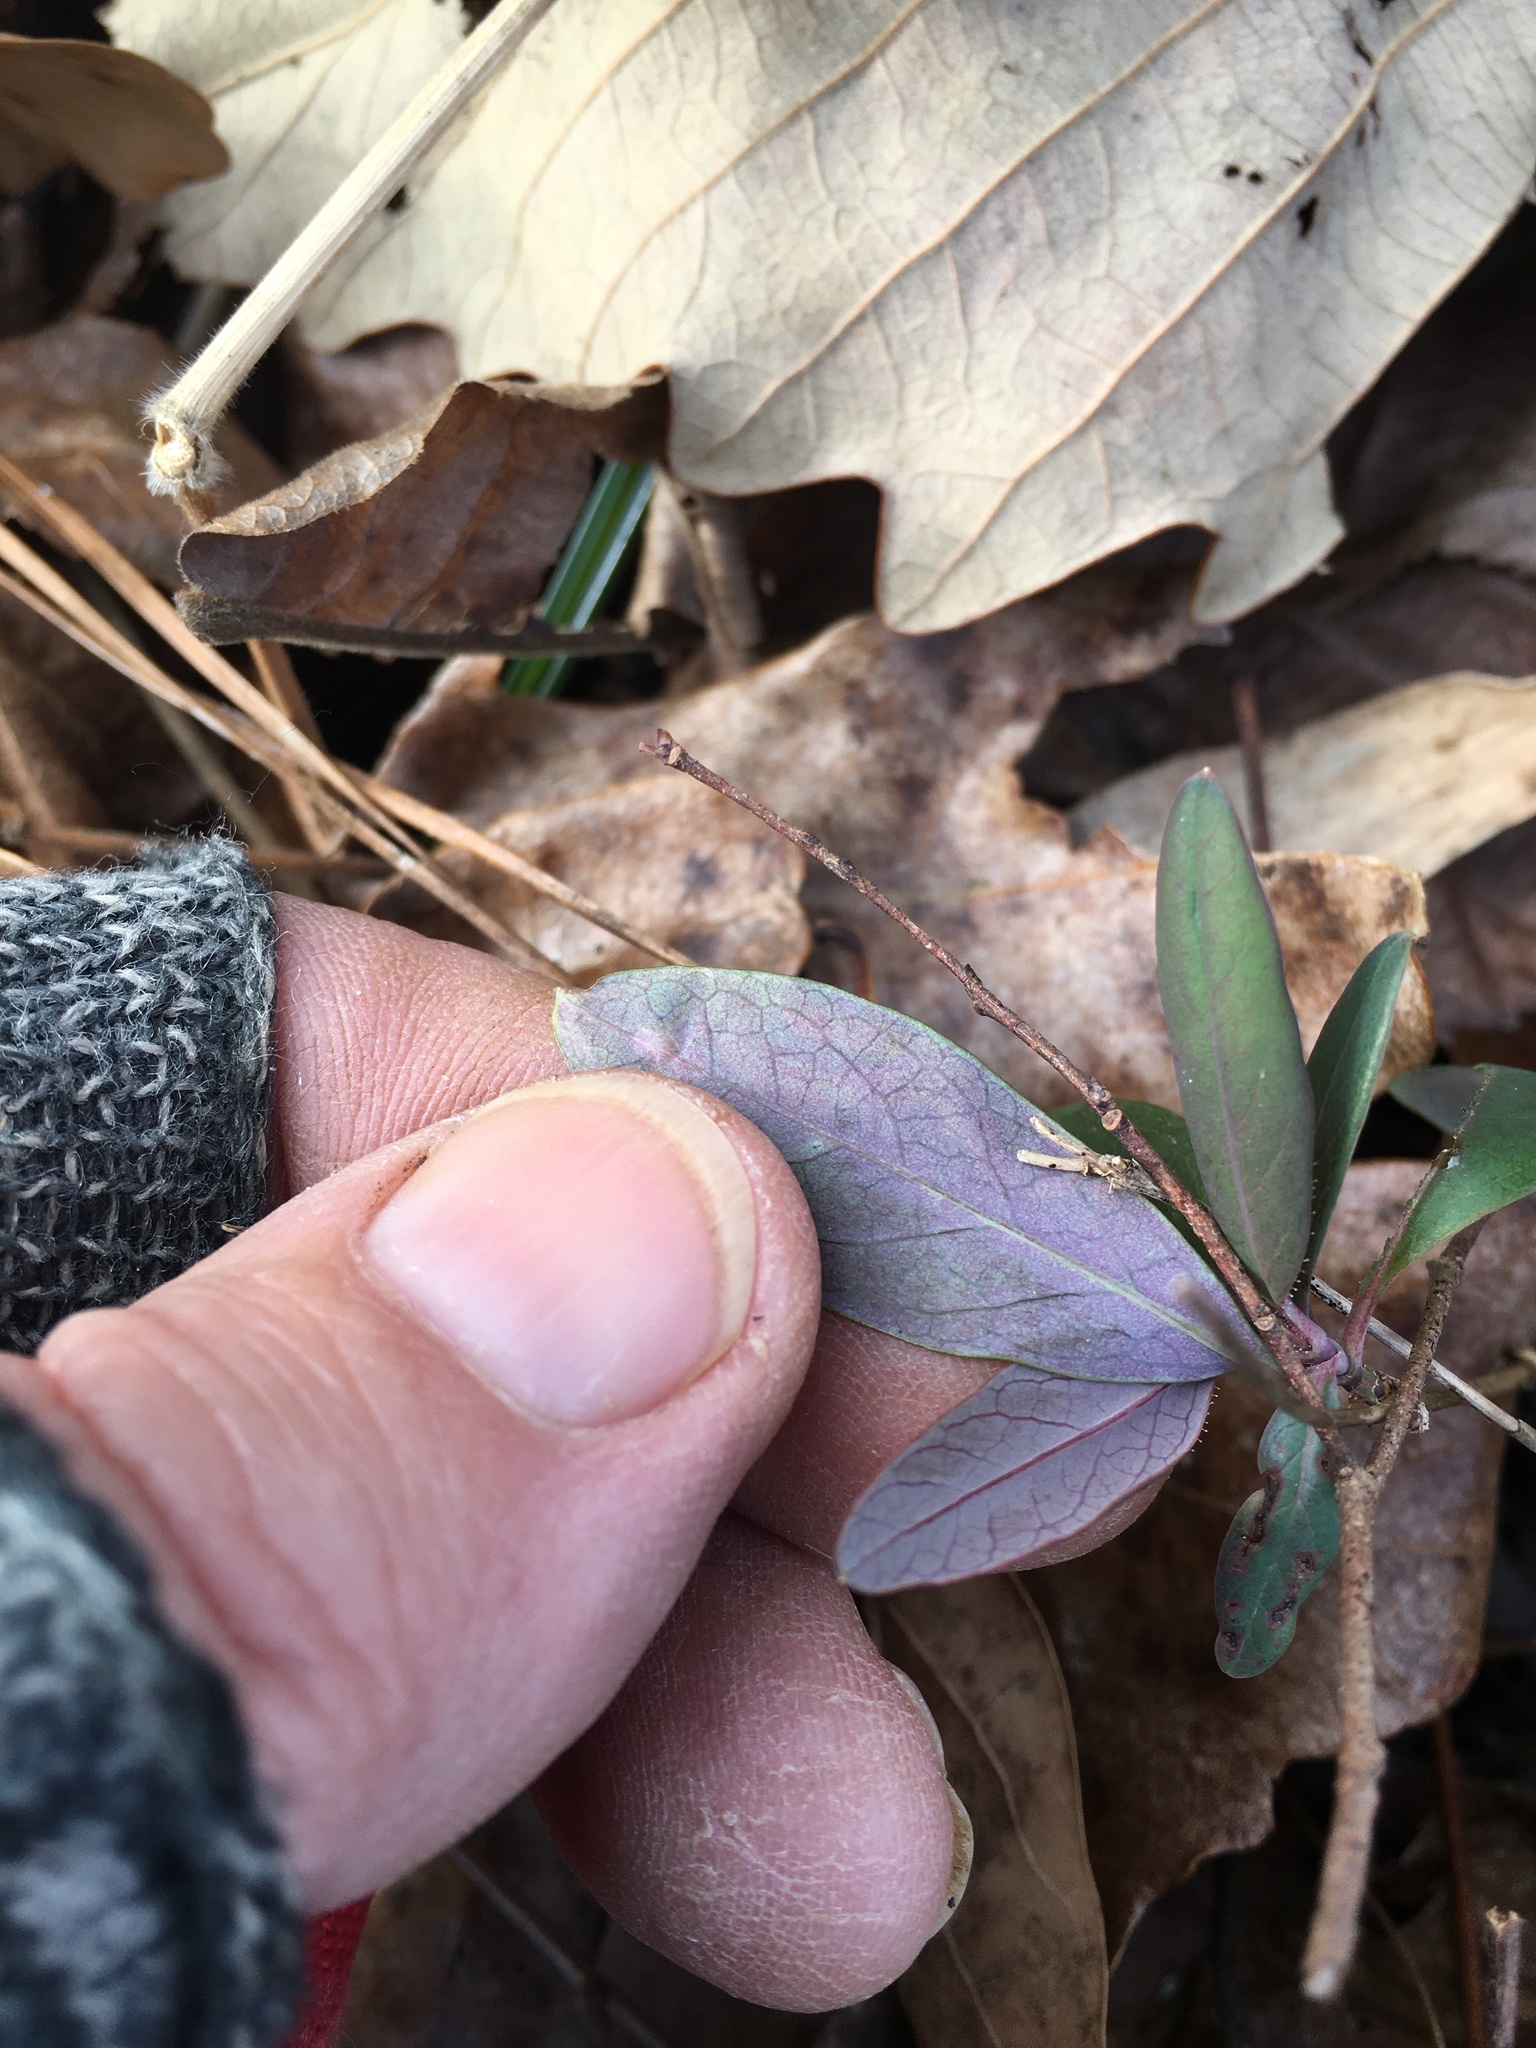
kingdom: Plantae
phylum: Tracheophyta
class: Magnoliopsida
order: Dipsacales
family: Caprifoliaceae
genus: Lonicera
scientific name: Lonicera sempervirens
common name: Coral honeysuckle
